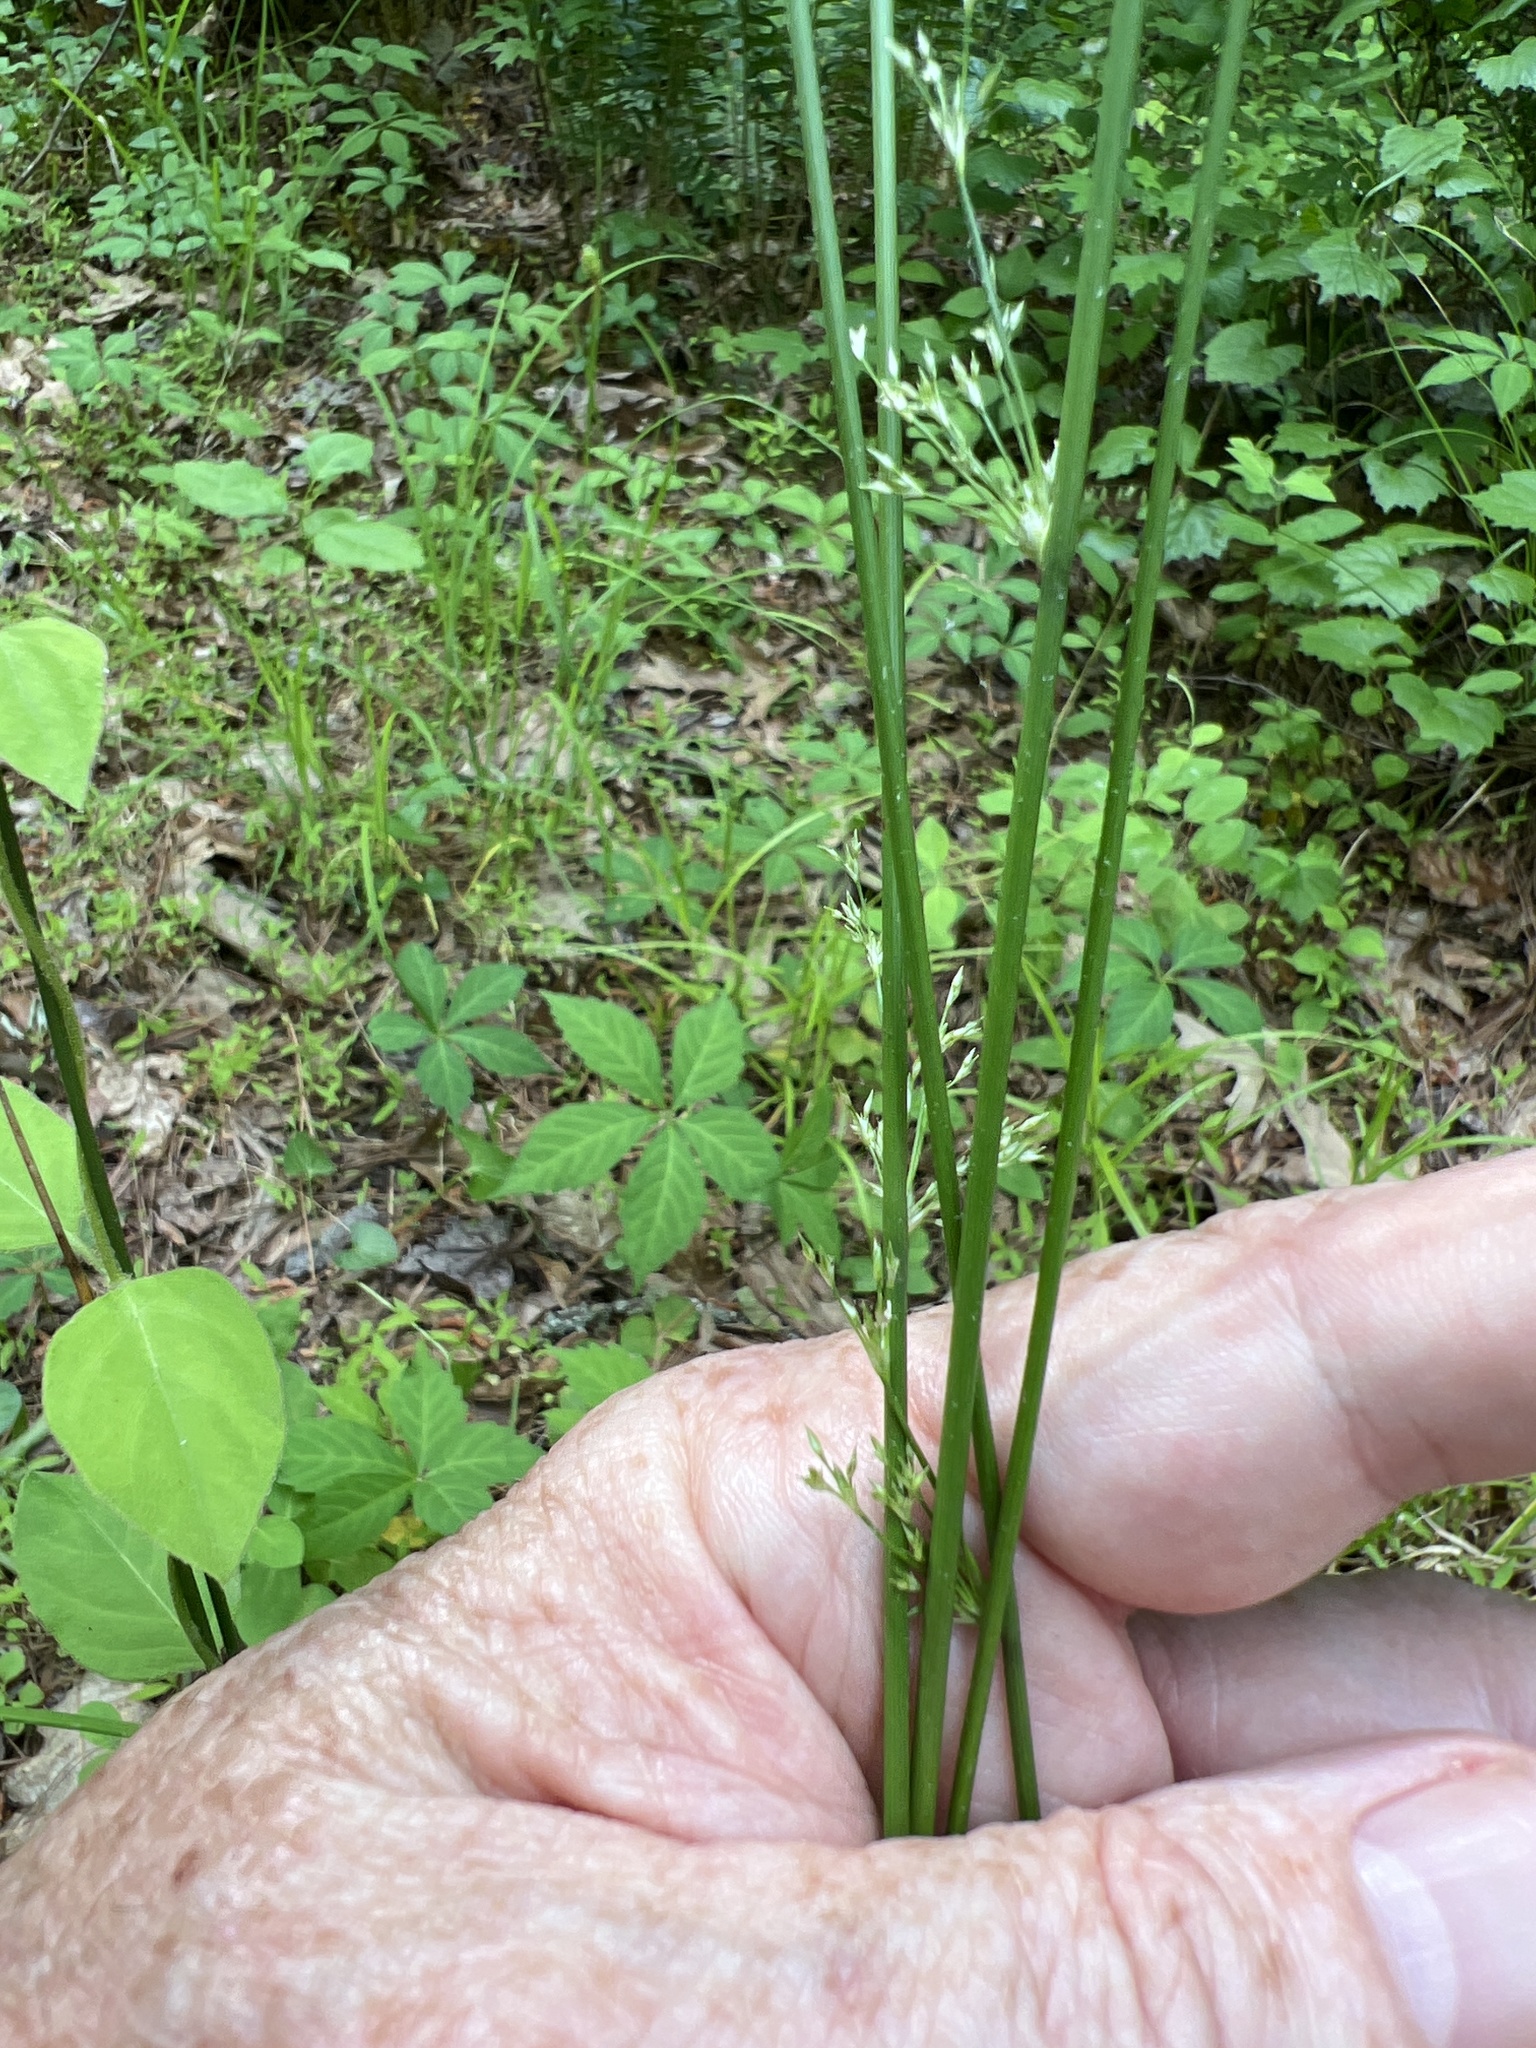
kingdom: Plantae
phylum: Tracheophyta
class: Liliopsida
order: Poales
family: Juncaceae
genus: Juncus
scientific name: Juncus effusus
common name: Soft rush
